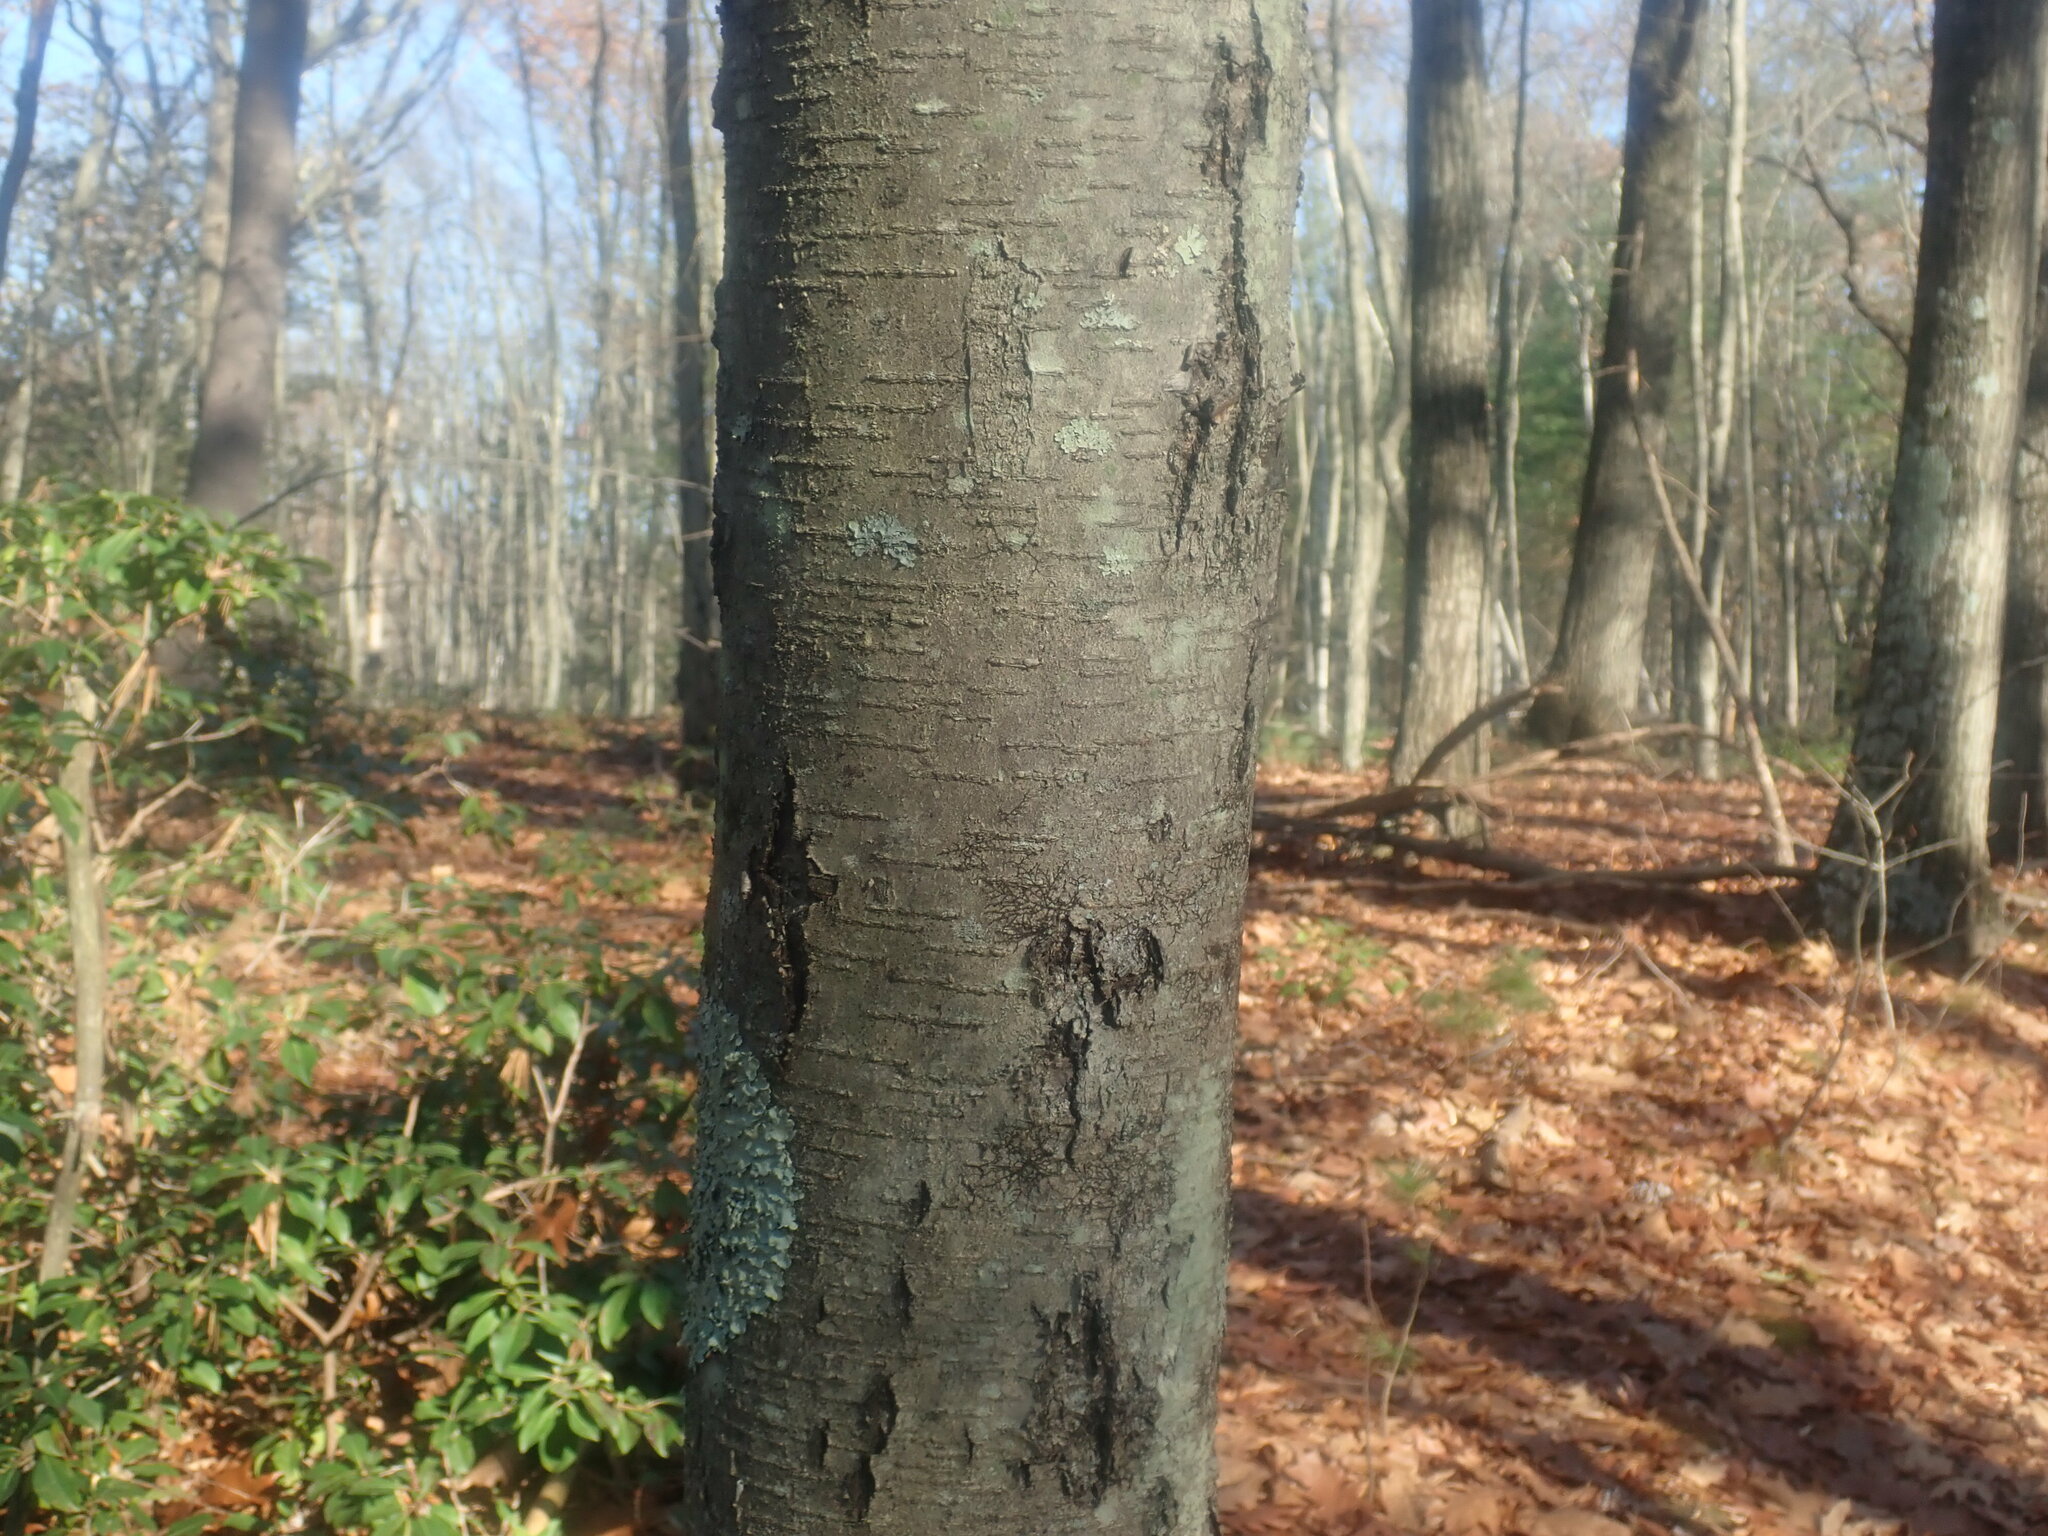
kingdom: Plantae
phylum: Tracheophyta
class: Magnoliopsida
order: Fagales
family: Betulaceae
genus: Betula
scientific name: Betula lenta
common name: Black birch
